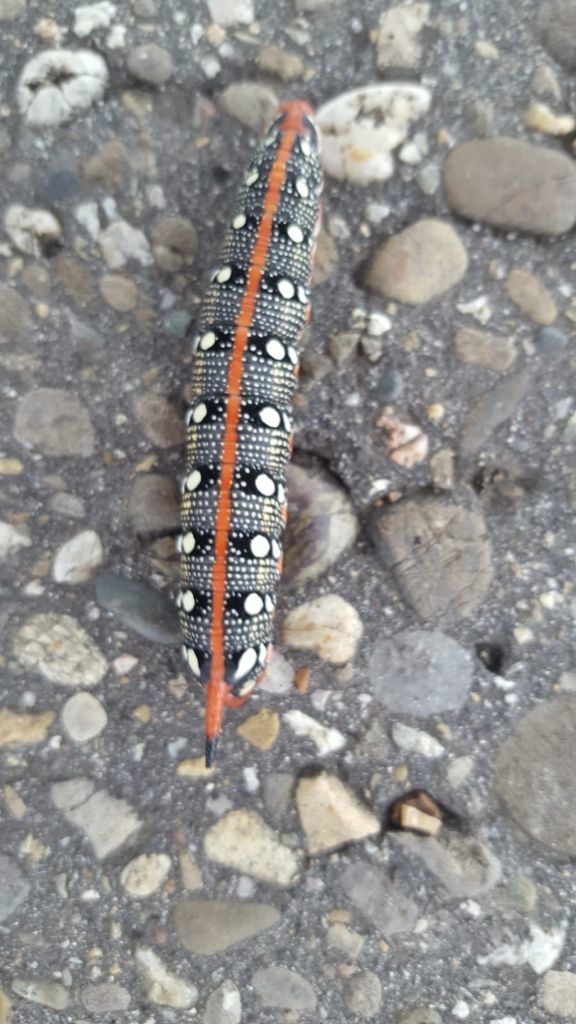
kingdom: Animalia
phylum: Arthropoda
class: Insecta
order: Lepidoptera
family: Sphingidae
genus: Hyles
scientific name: Hyles euphorbiae
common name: Spurge hawk-moth
